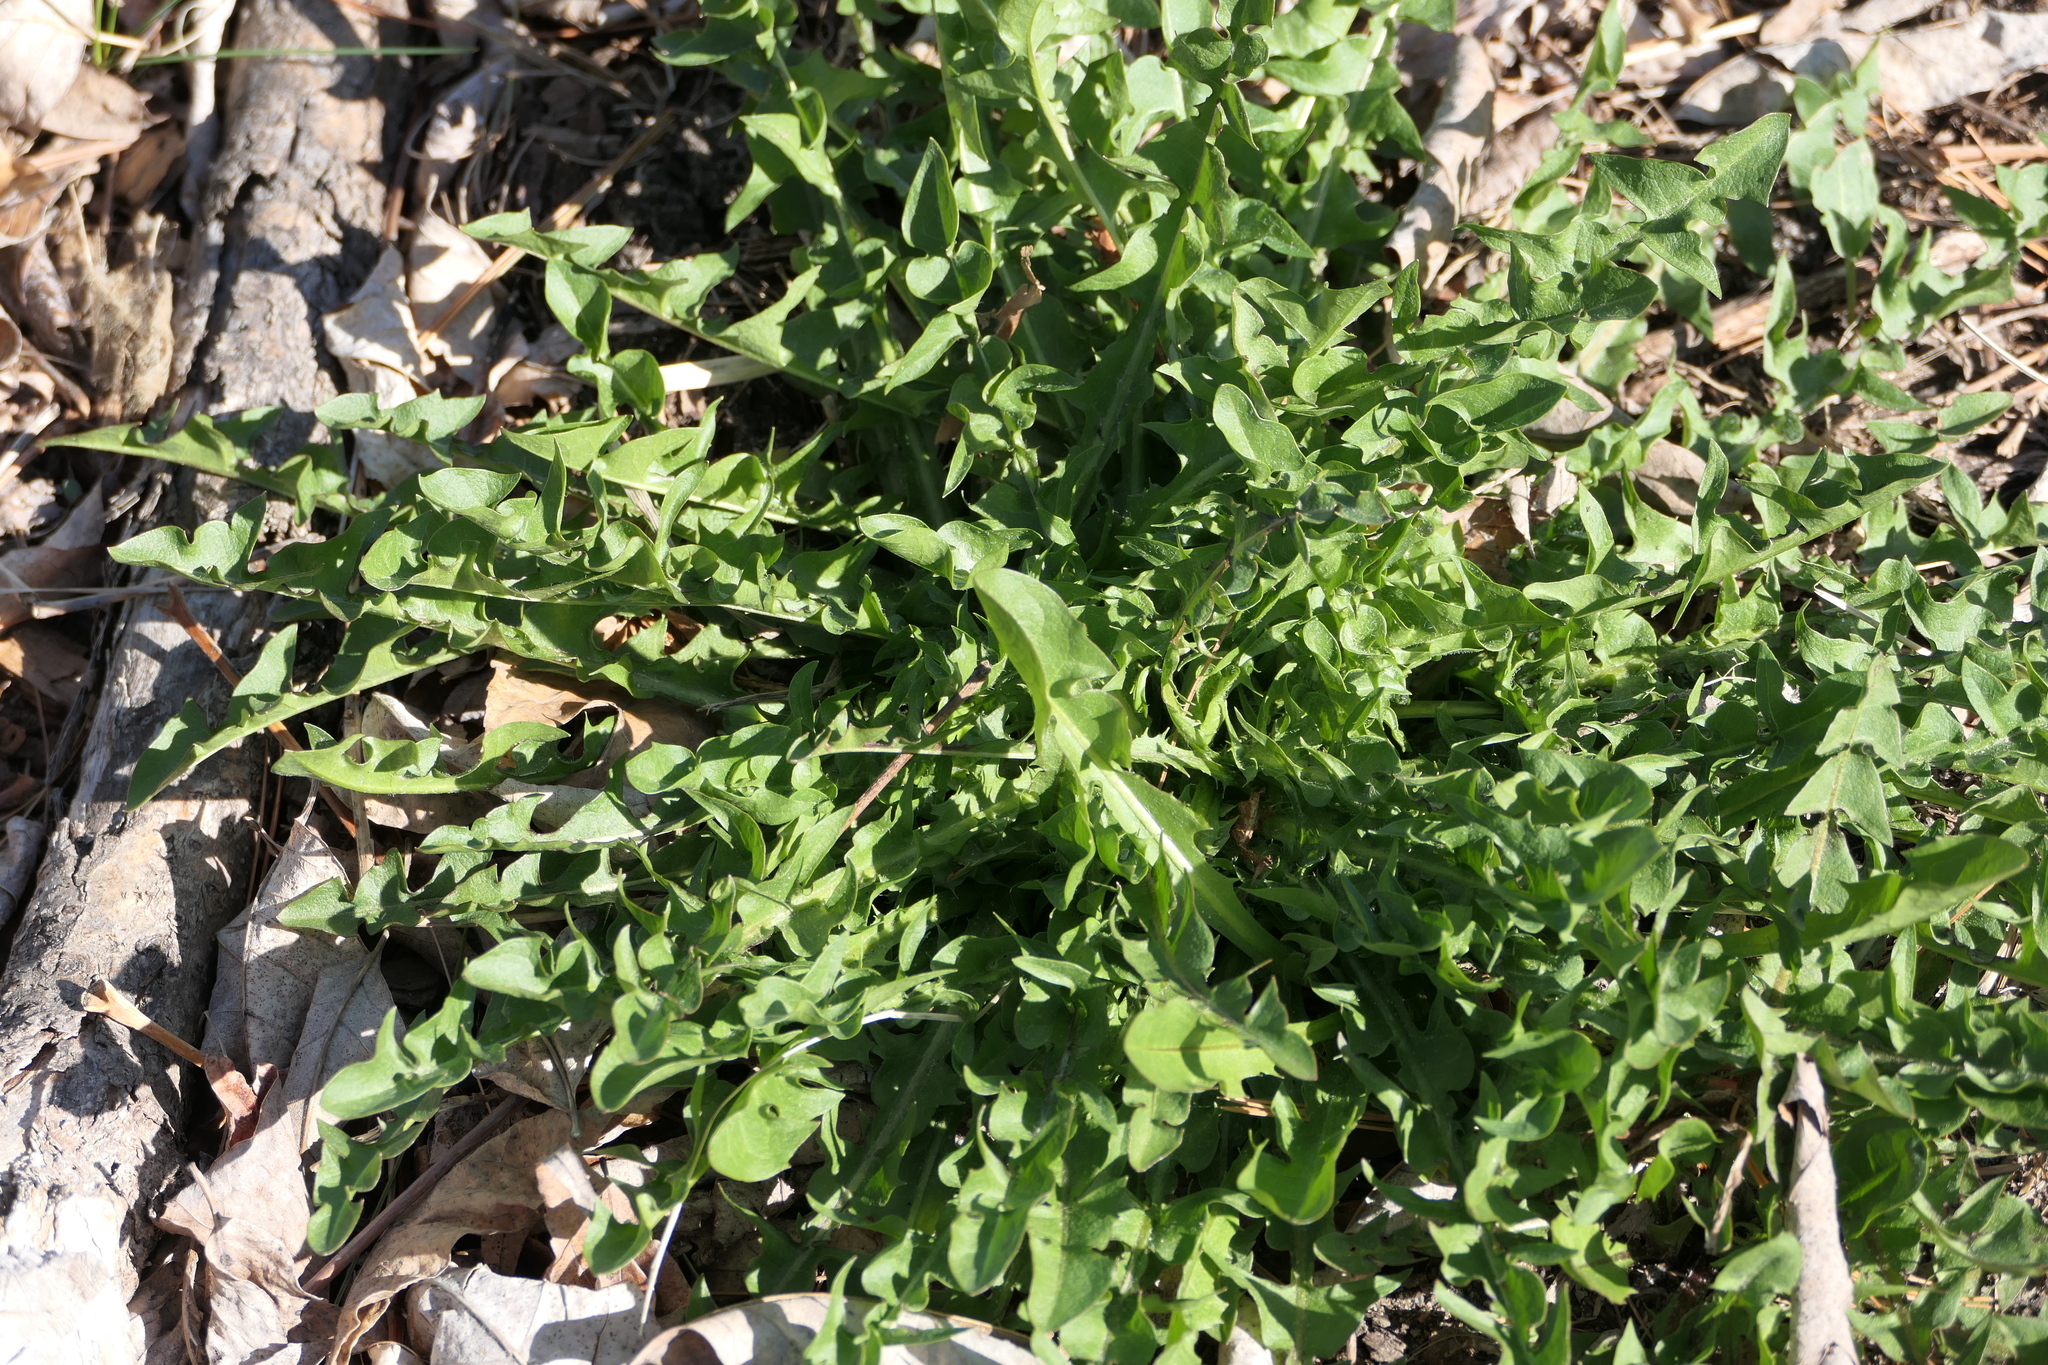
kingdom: Plantae
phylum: Tracheophyta
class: Magnoliopsida
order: Asterales
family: Asteraceae
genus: Taraxacum
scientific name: Taraxacum officinale
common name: Common dandelion
